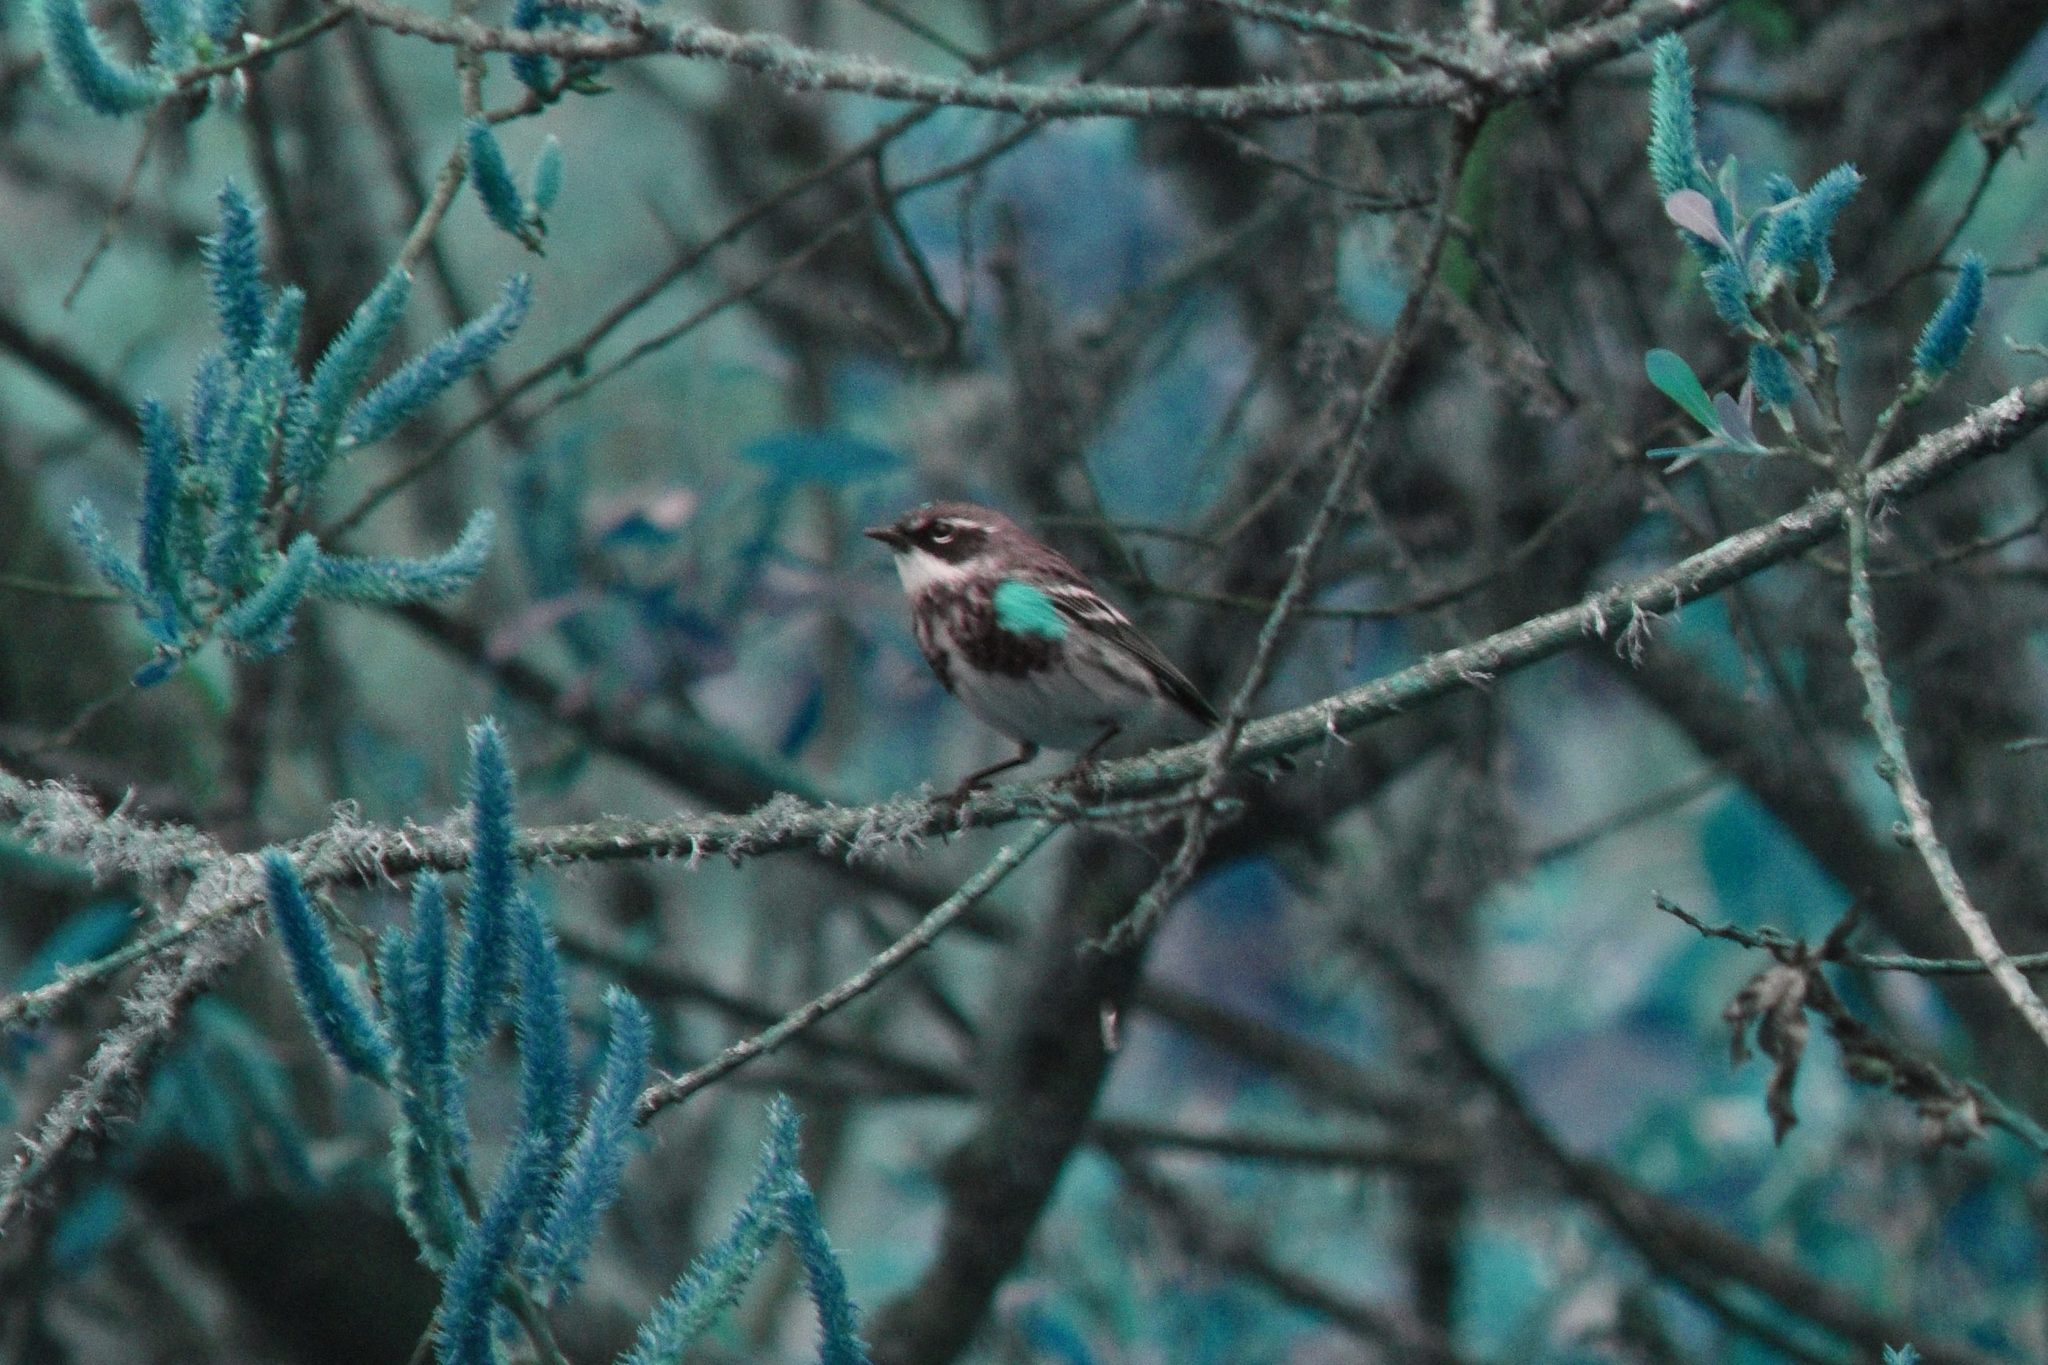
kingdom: Animalia
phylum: Chordata
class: Aves
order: Passeriformes
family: Parulidae
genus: Setophaga
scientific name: Setophaga coronata
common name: Myrtle warbler
